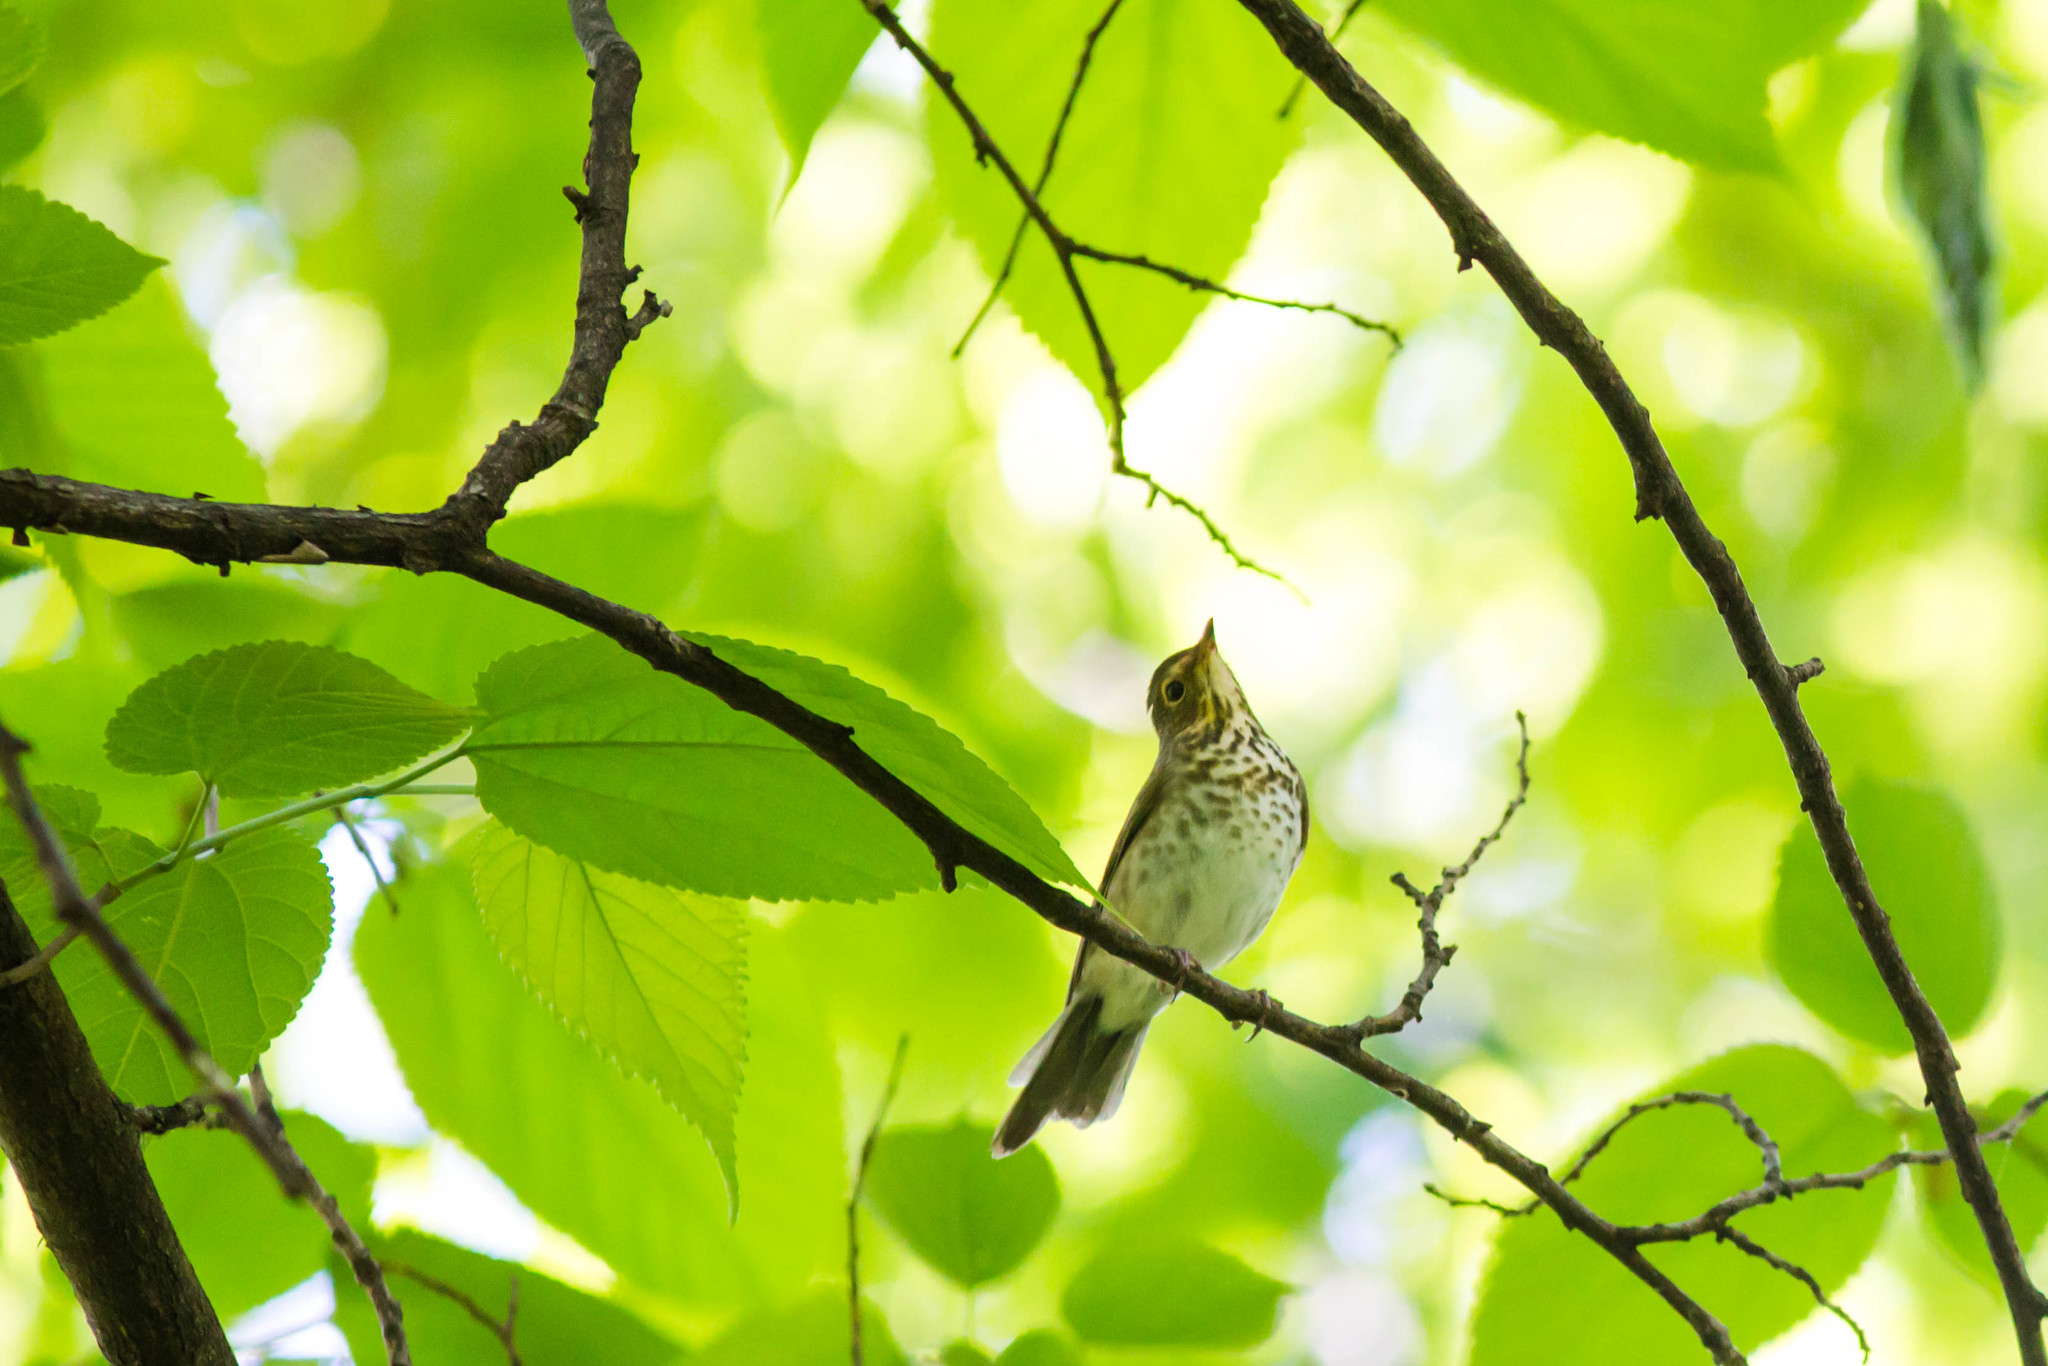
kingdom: Animalia
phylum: Chordata
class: Aves
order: Passeriformes
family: Turdidae
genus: Catharus
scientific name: Catharus ustulatus
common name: Swainson's thrush
